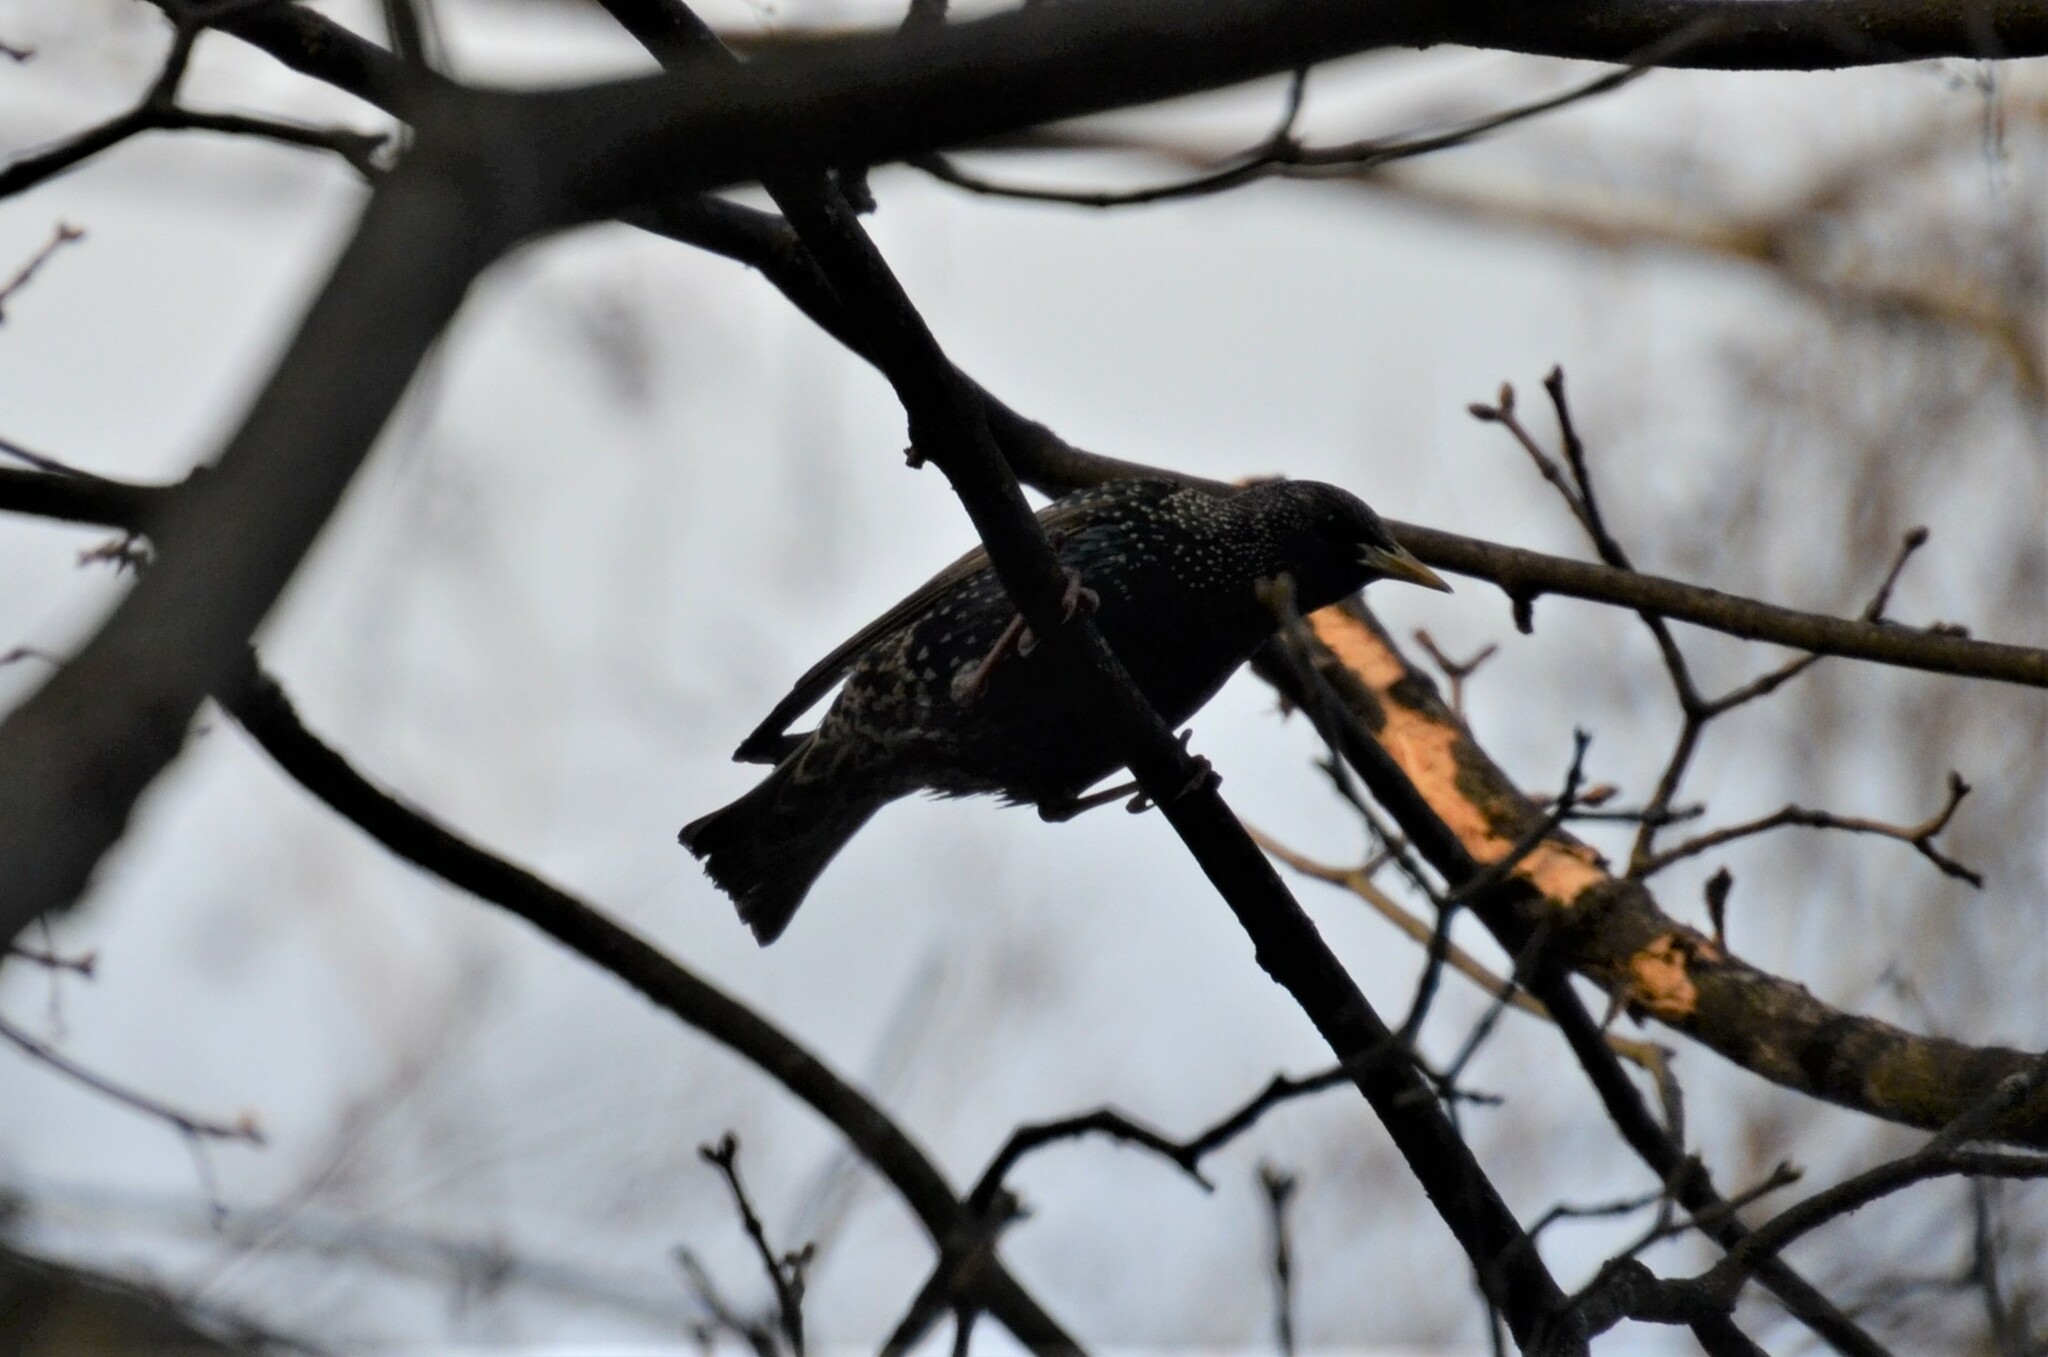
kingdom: Animalia
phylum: Chordata
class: Aves
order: Passeriformes
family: Sturnidae
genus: Sturnus
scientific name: Sturnus vulgaris
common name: Common starling
